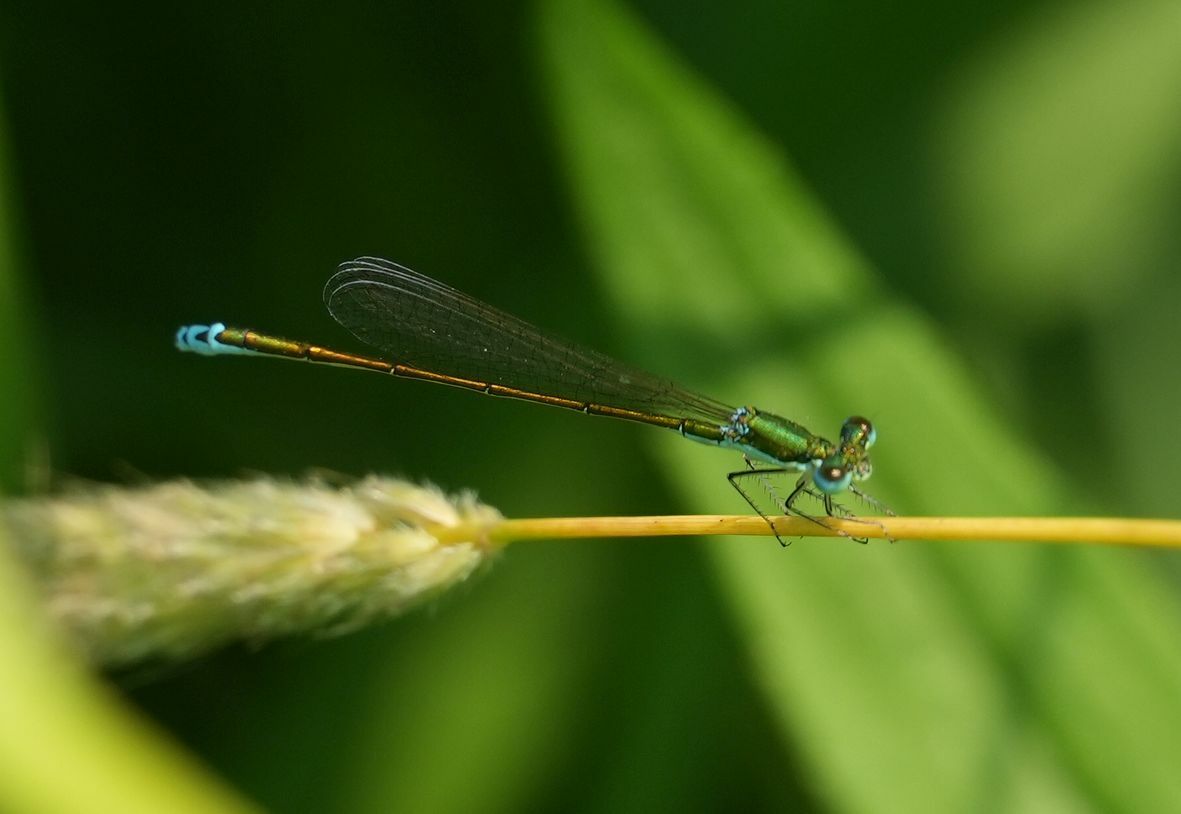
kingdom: Animalia
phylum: Arthropoda
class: Insecta
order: Odonata
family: Coenagrionidae
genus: Nehalennia
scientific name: Nehalennia irene
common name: Sedge sprite
